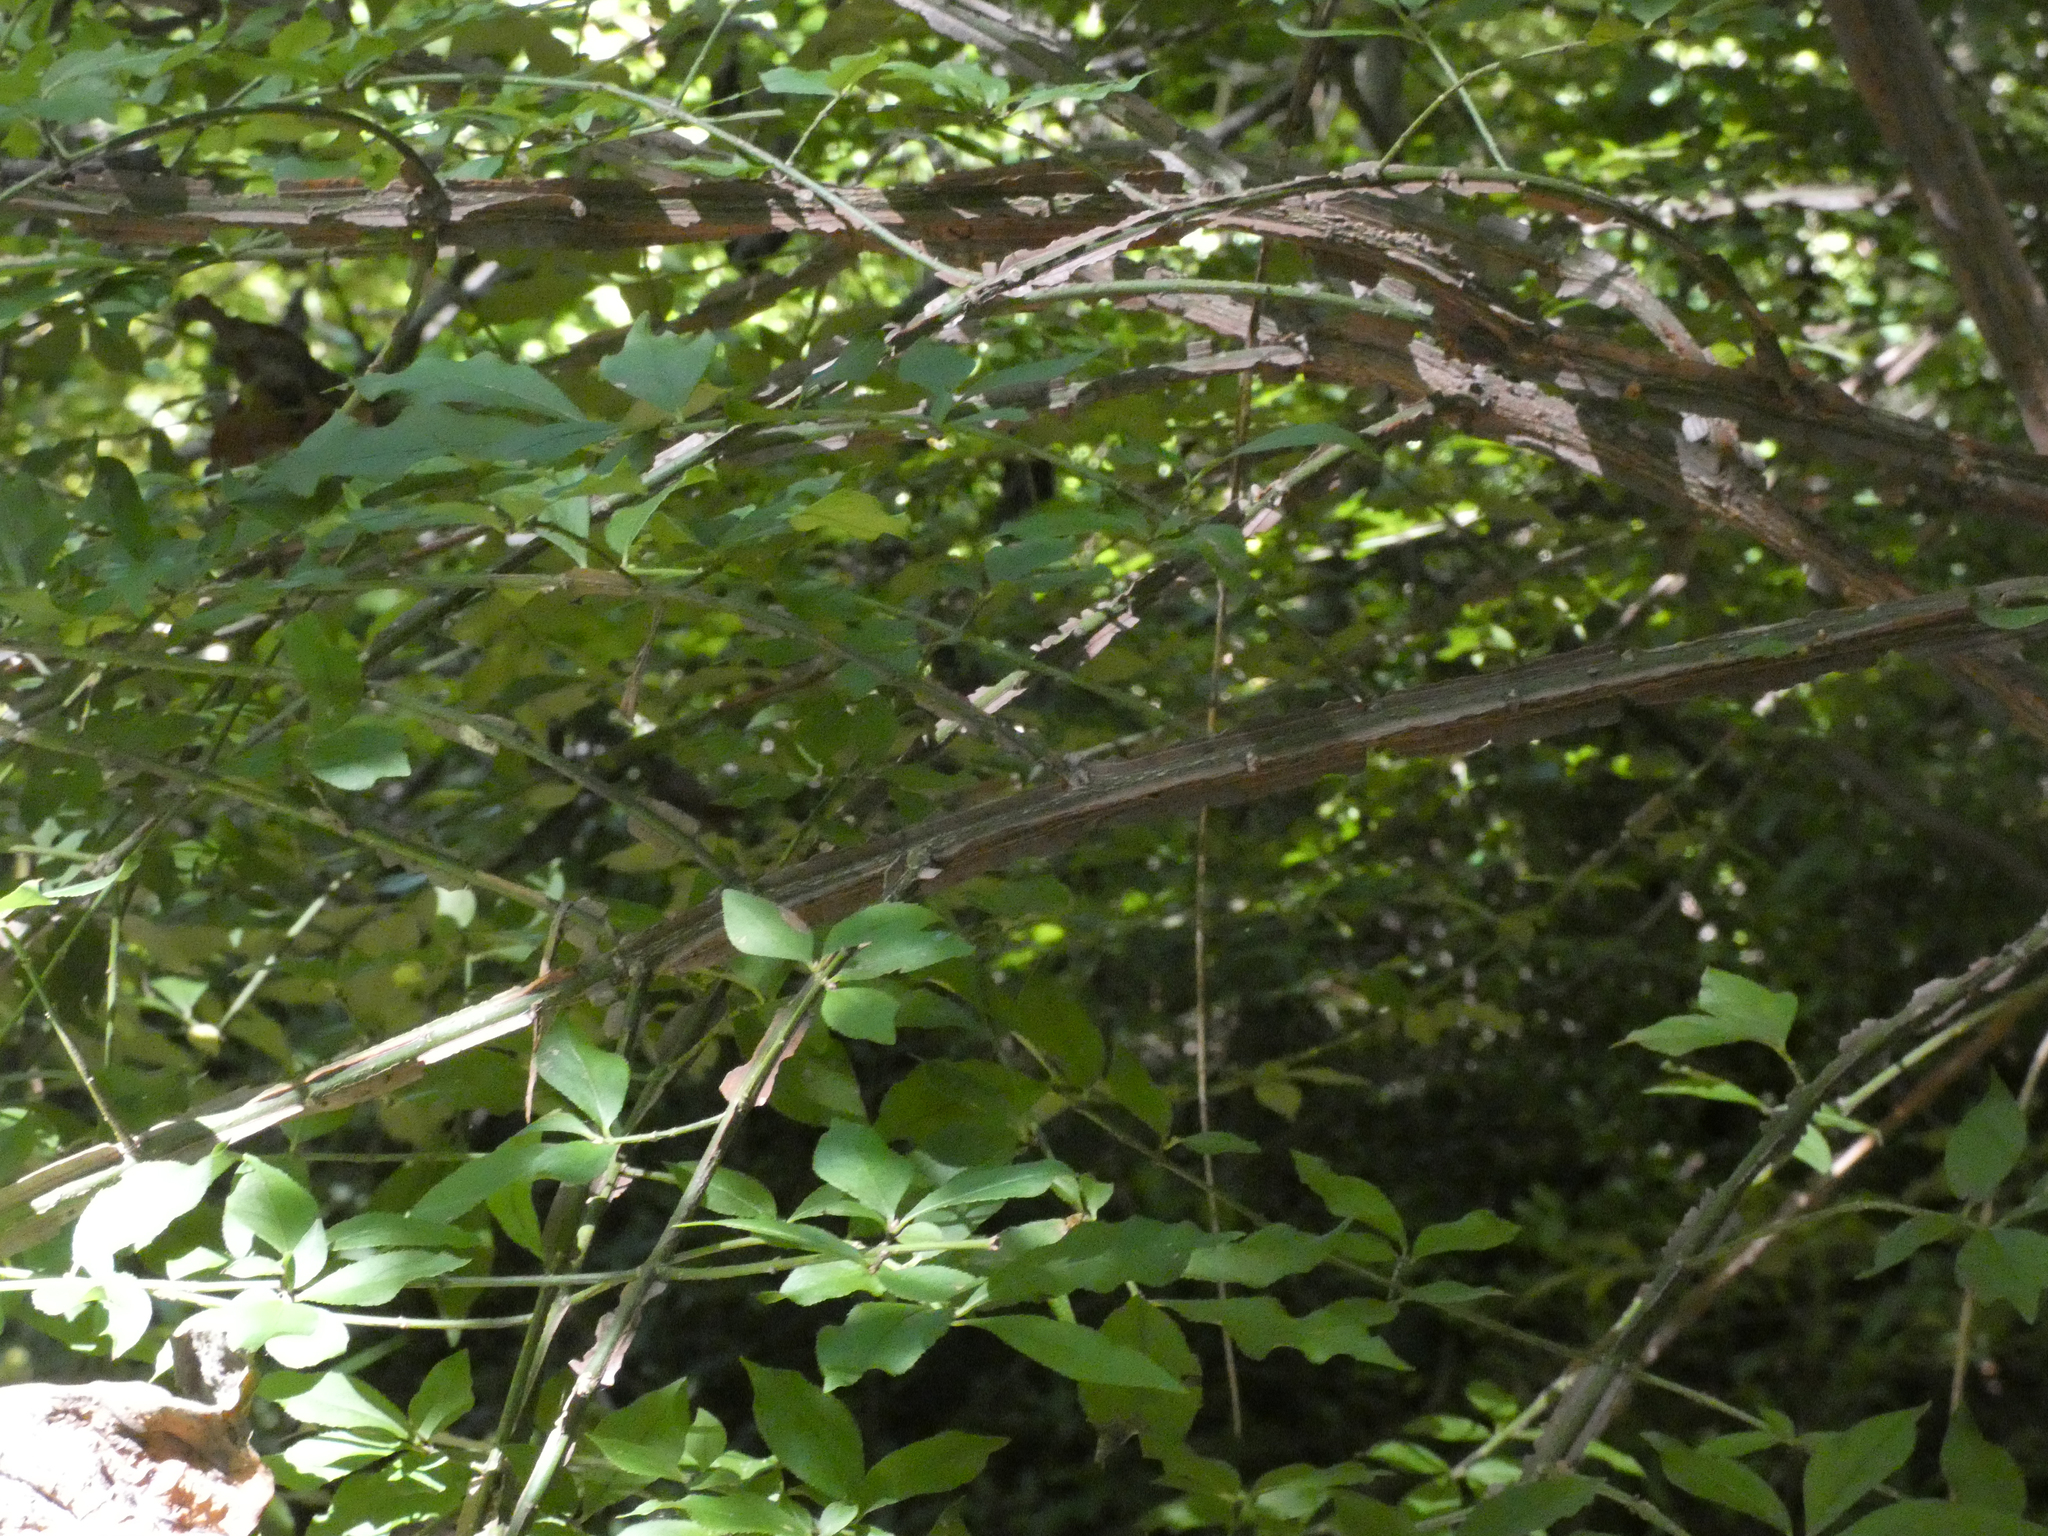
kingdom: Plantae
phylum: Tracheophyta
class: Magnoliopsida
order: Celastrales
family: Celastraceae
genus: Euonymus
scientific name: Euonymus alatus
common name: Winged euonymus
